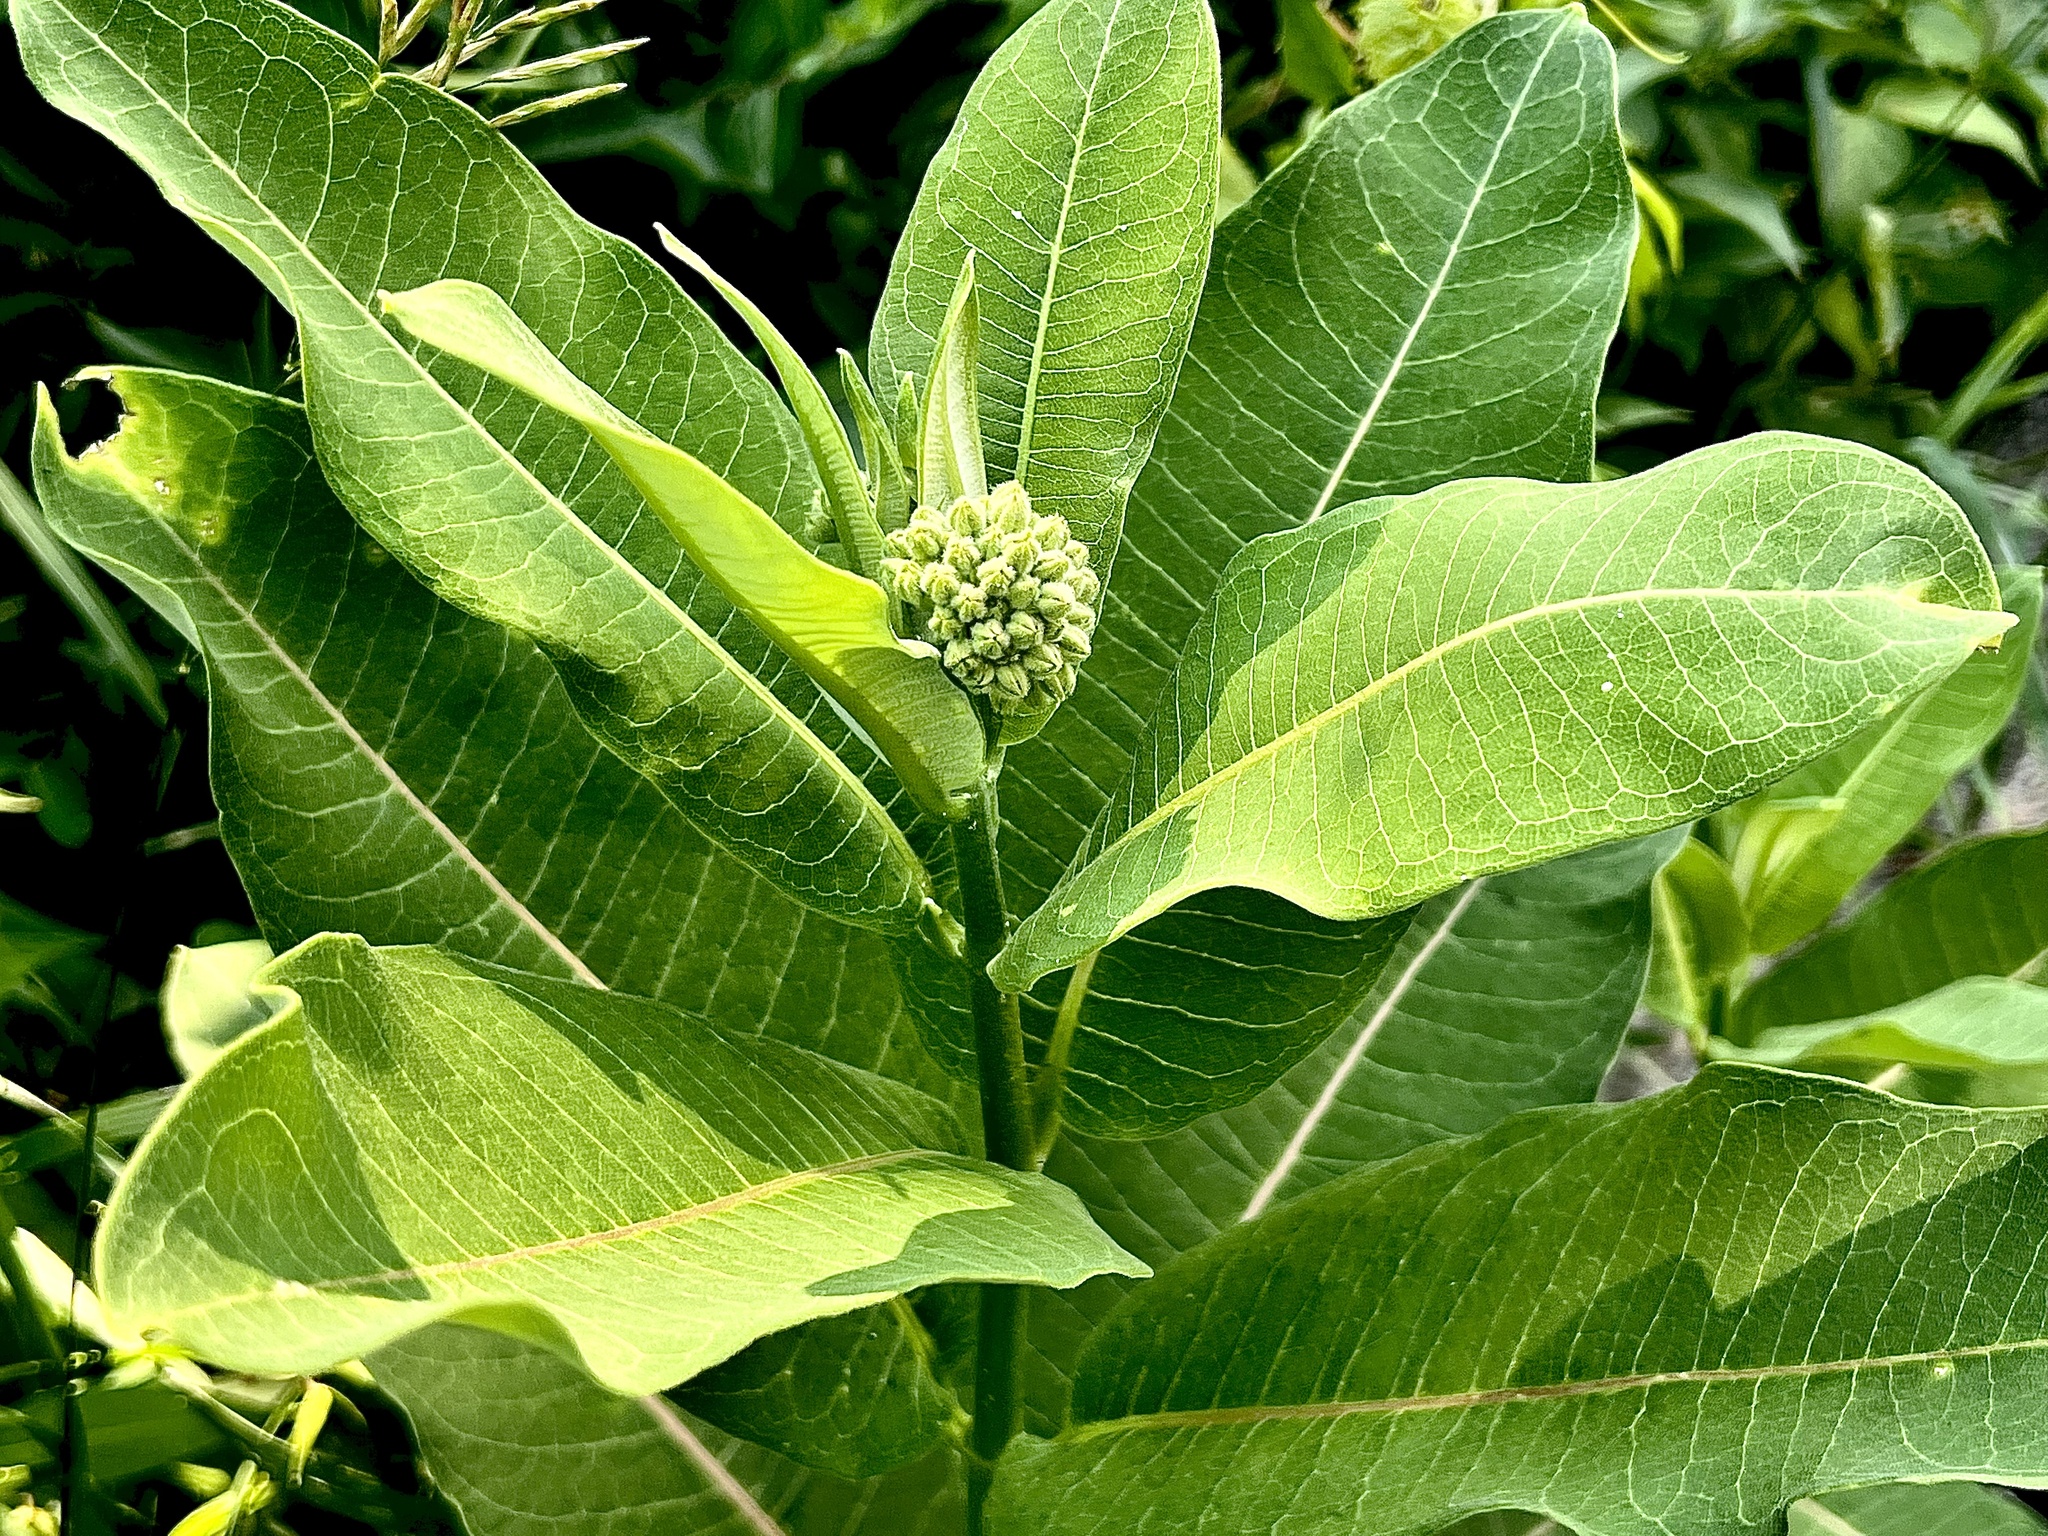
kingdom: Plantae
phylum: Tracheophyta
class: Magnoliopsida
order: Gentianales
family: Apocynaceae
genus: Asclepias
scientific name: Asclepias syriaca
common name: Common milkweed
